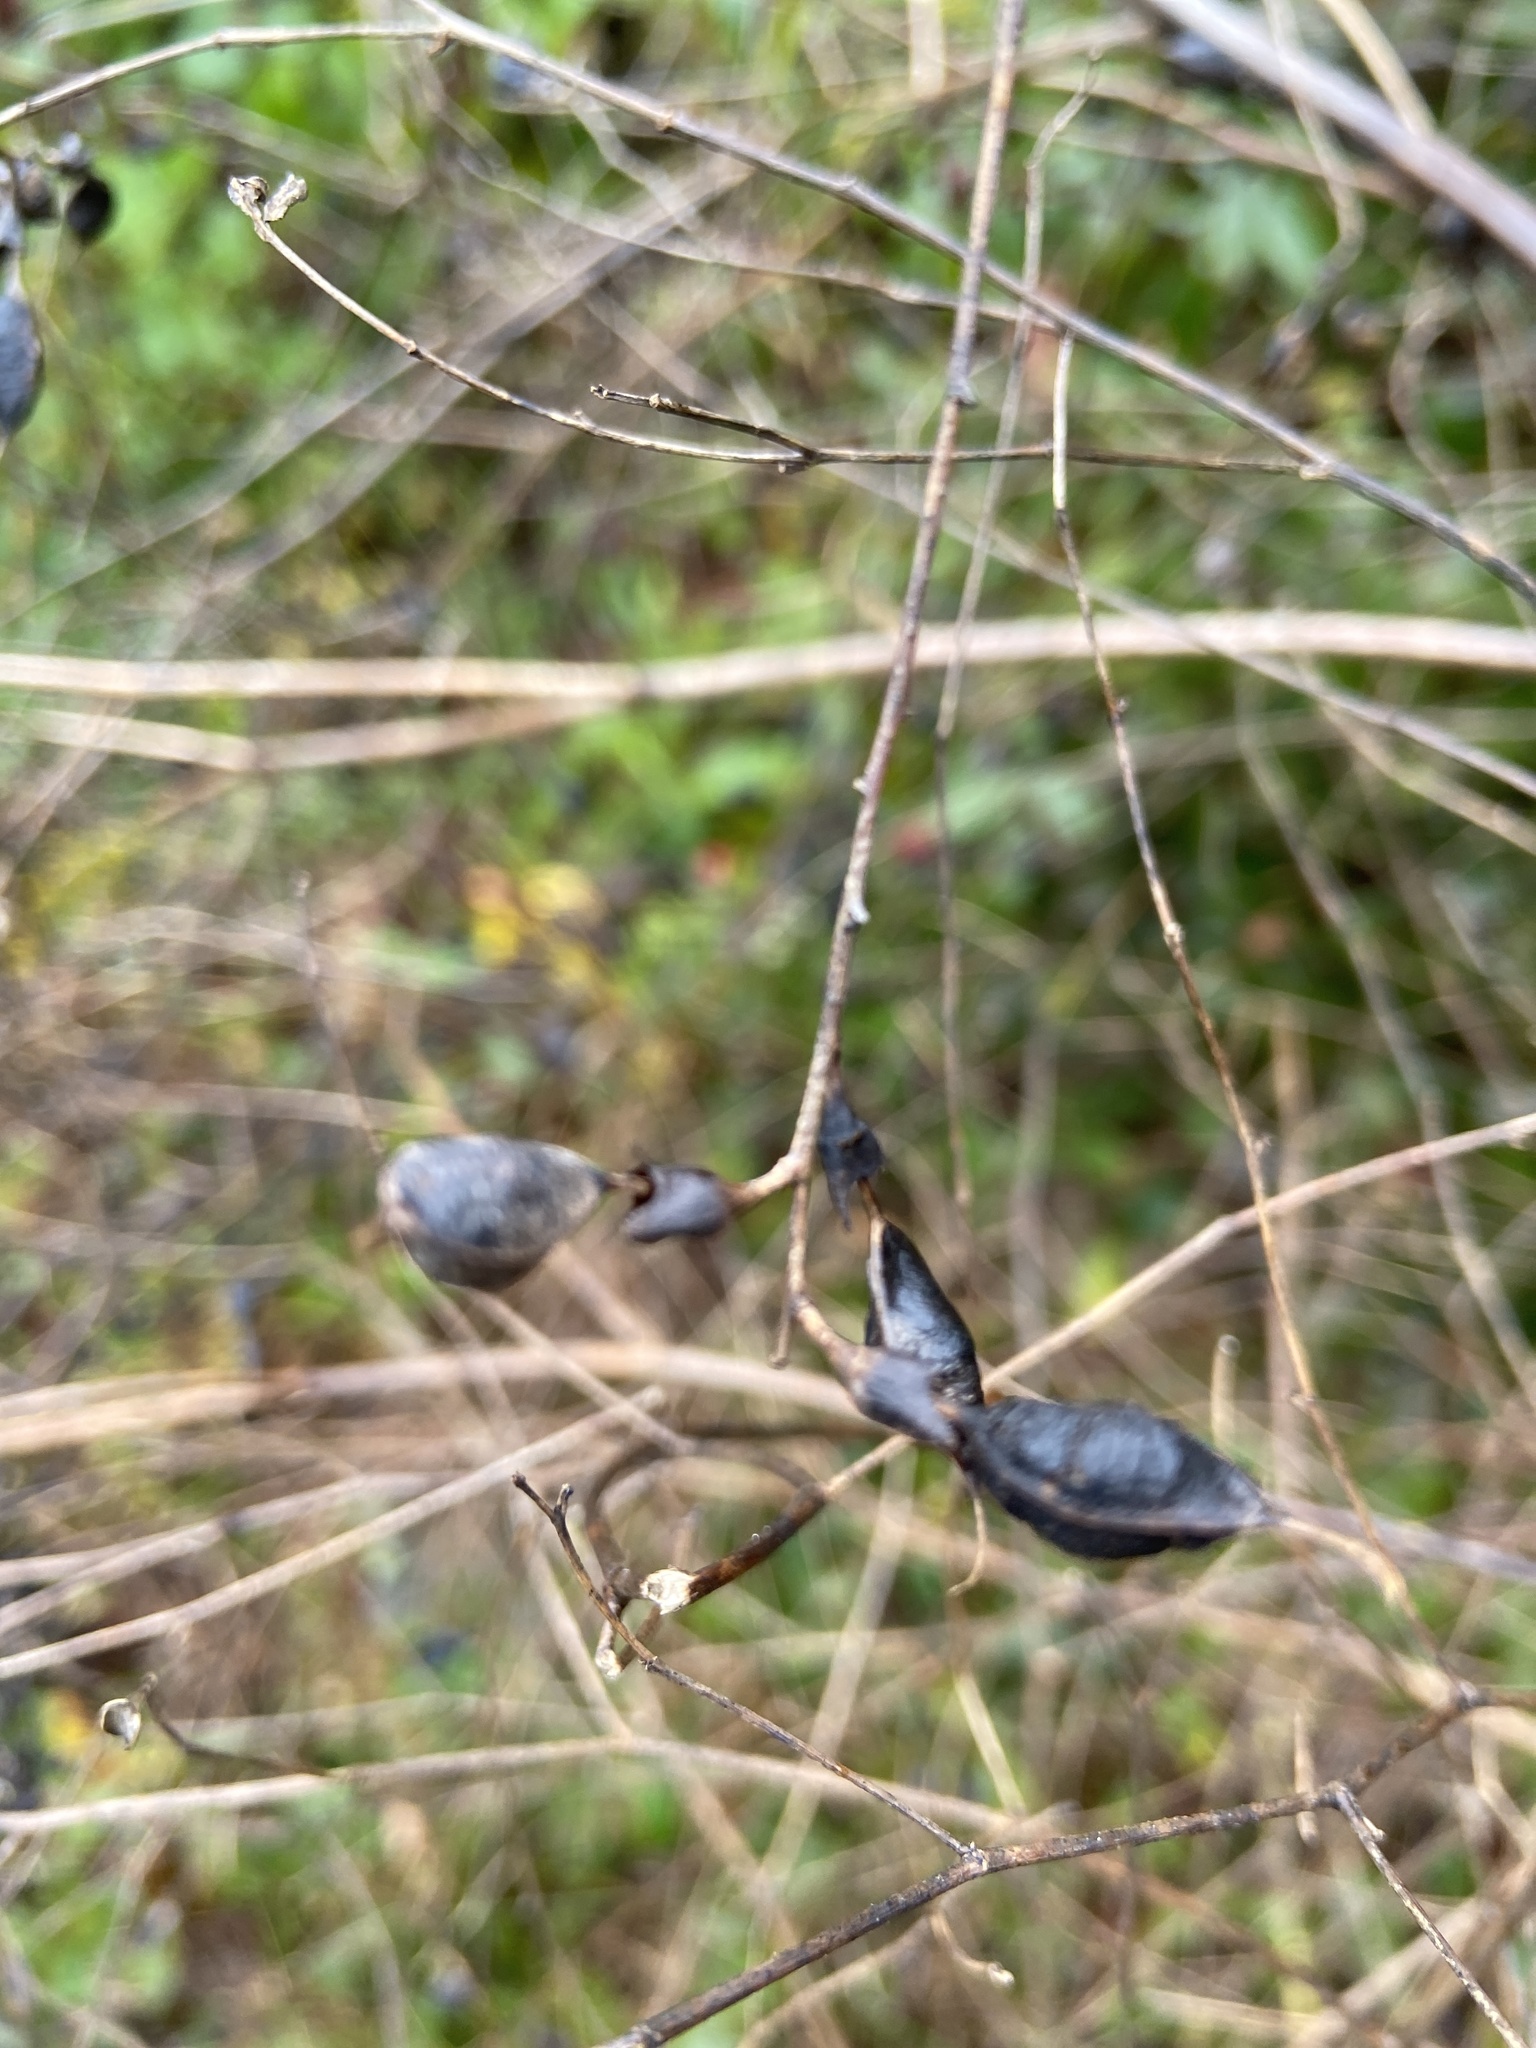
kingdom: Plantae
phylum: Tracheophyta
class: Magnoliopsida
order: Fabales
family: Fabaceae
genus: Baptisia
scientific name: Baptisia tinctoria
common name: Wild indigo
